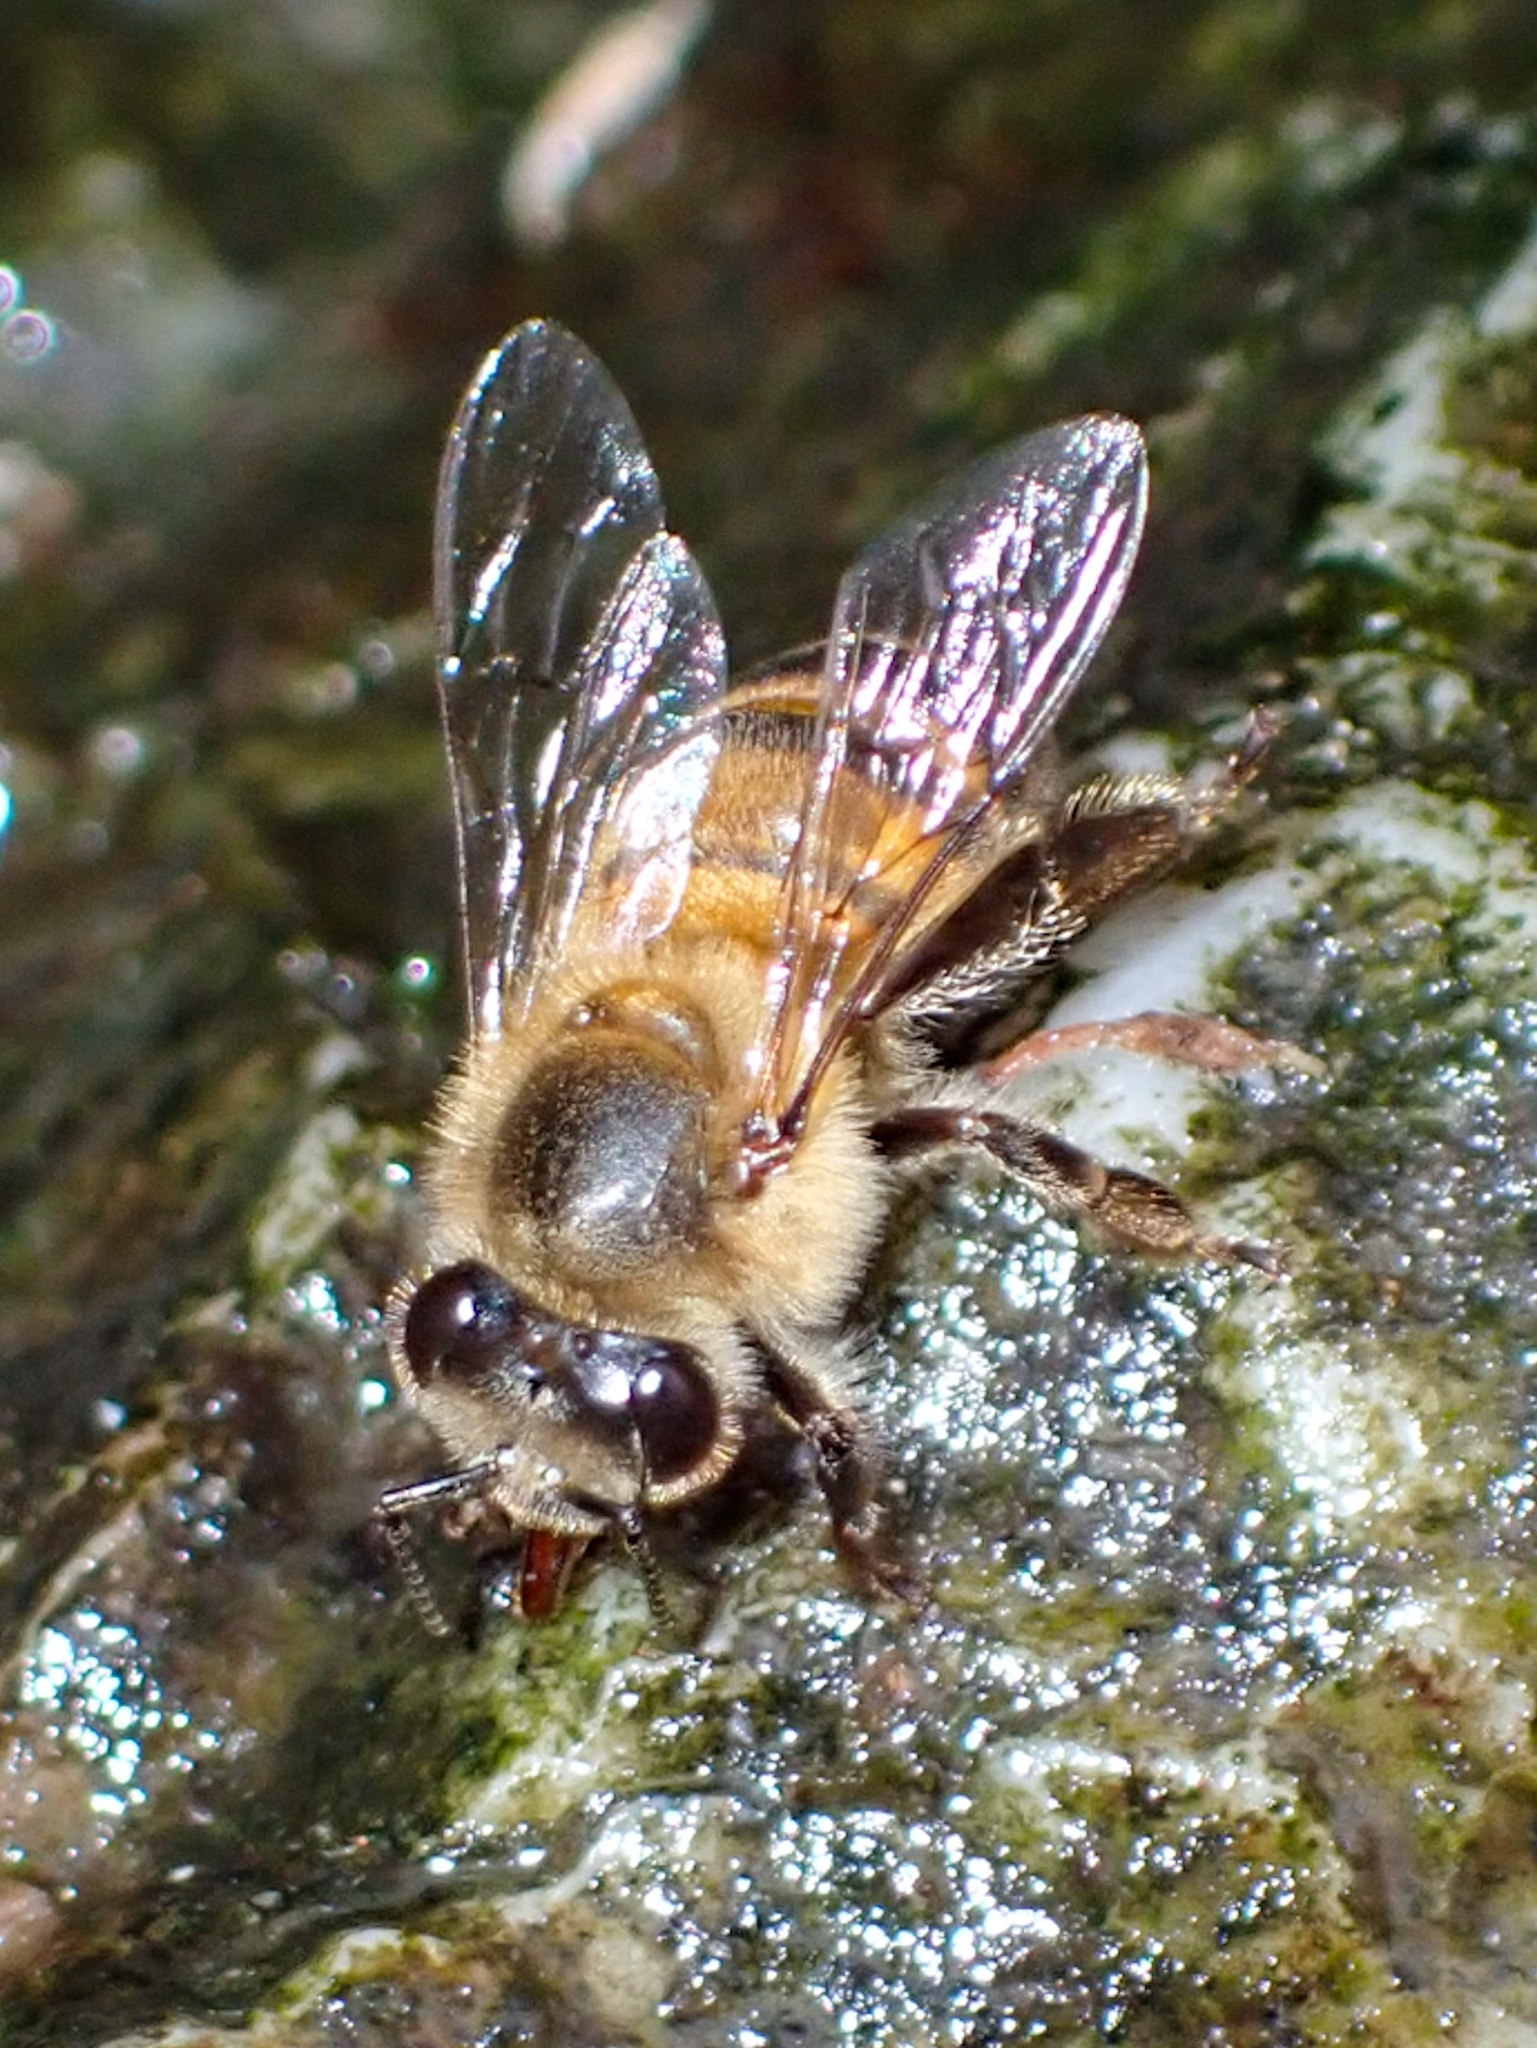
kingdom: Animalia
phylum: Arthropoda
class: Insecta
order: Hymenoptera
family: Apidae
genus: Apis
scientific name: Apis mellifera
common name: Honey bee
